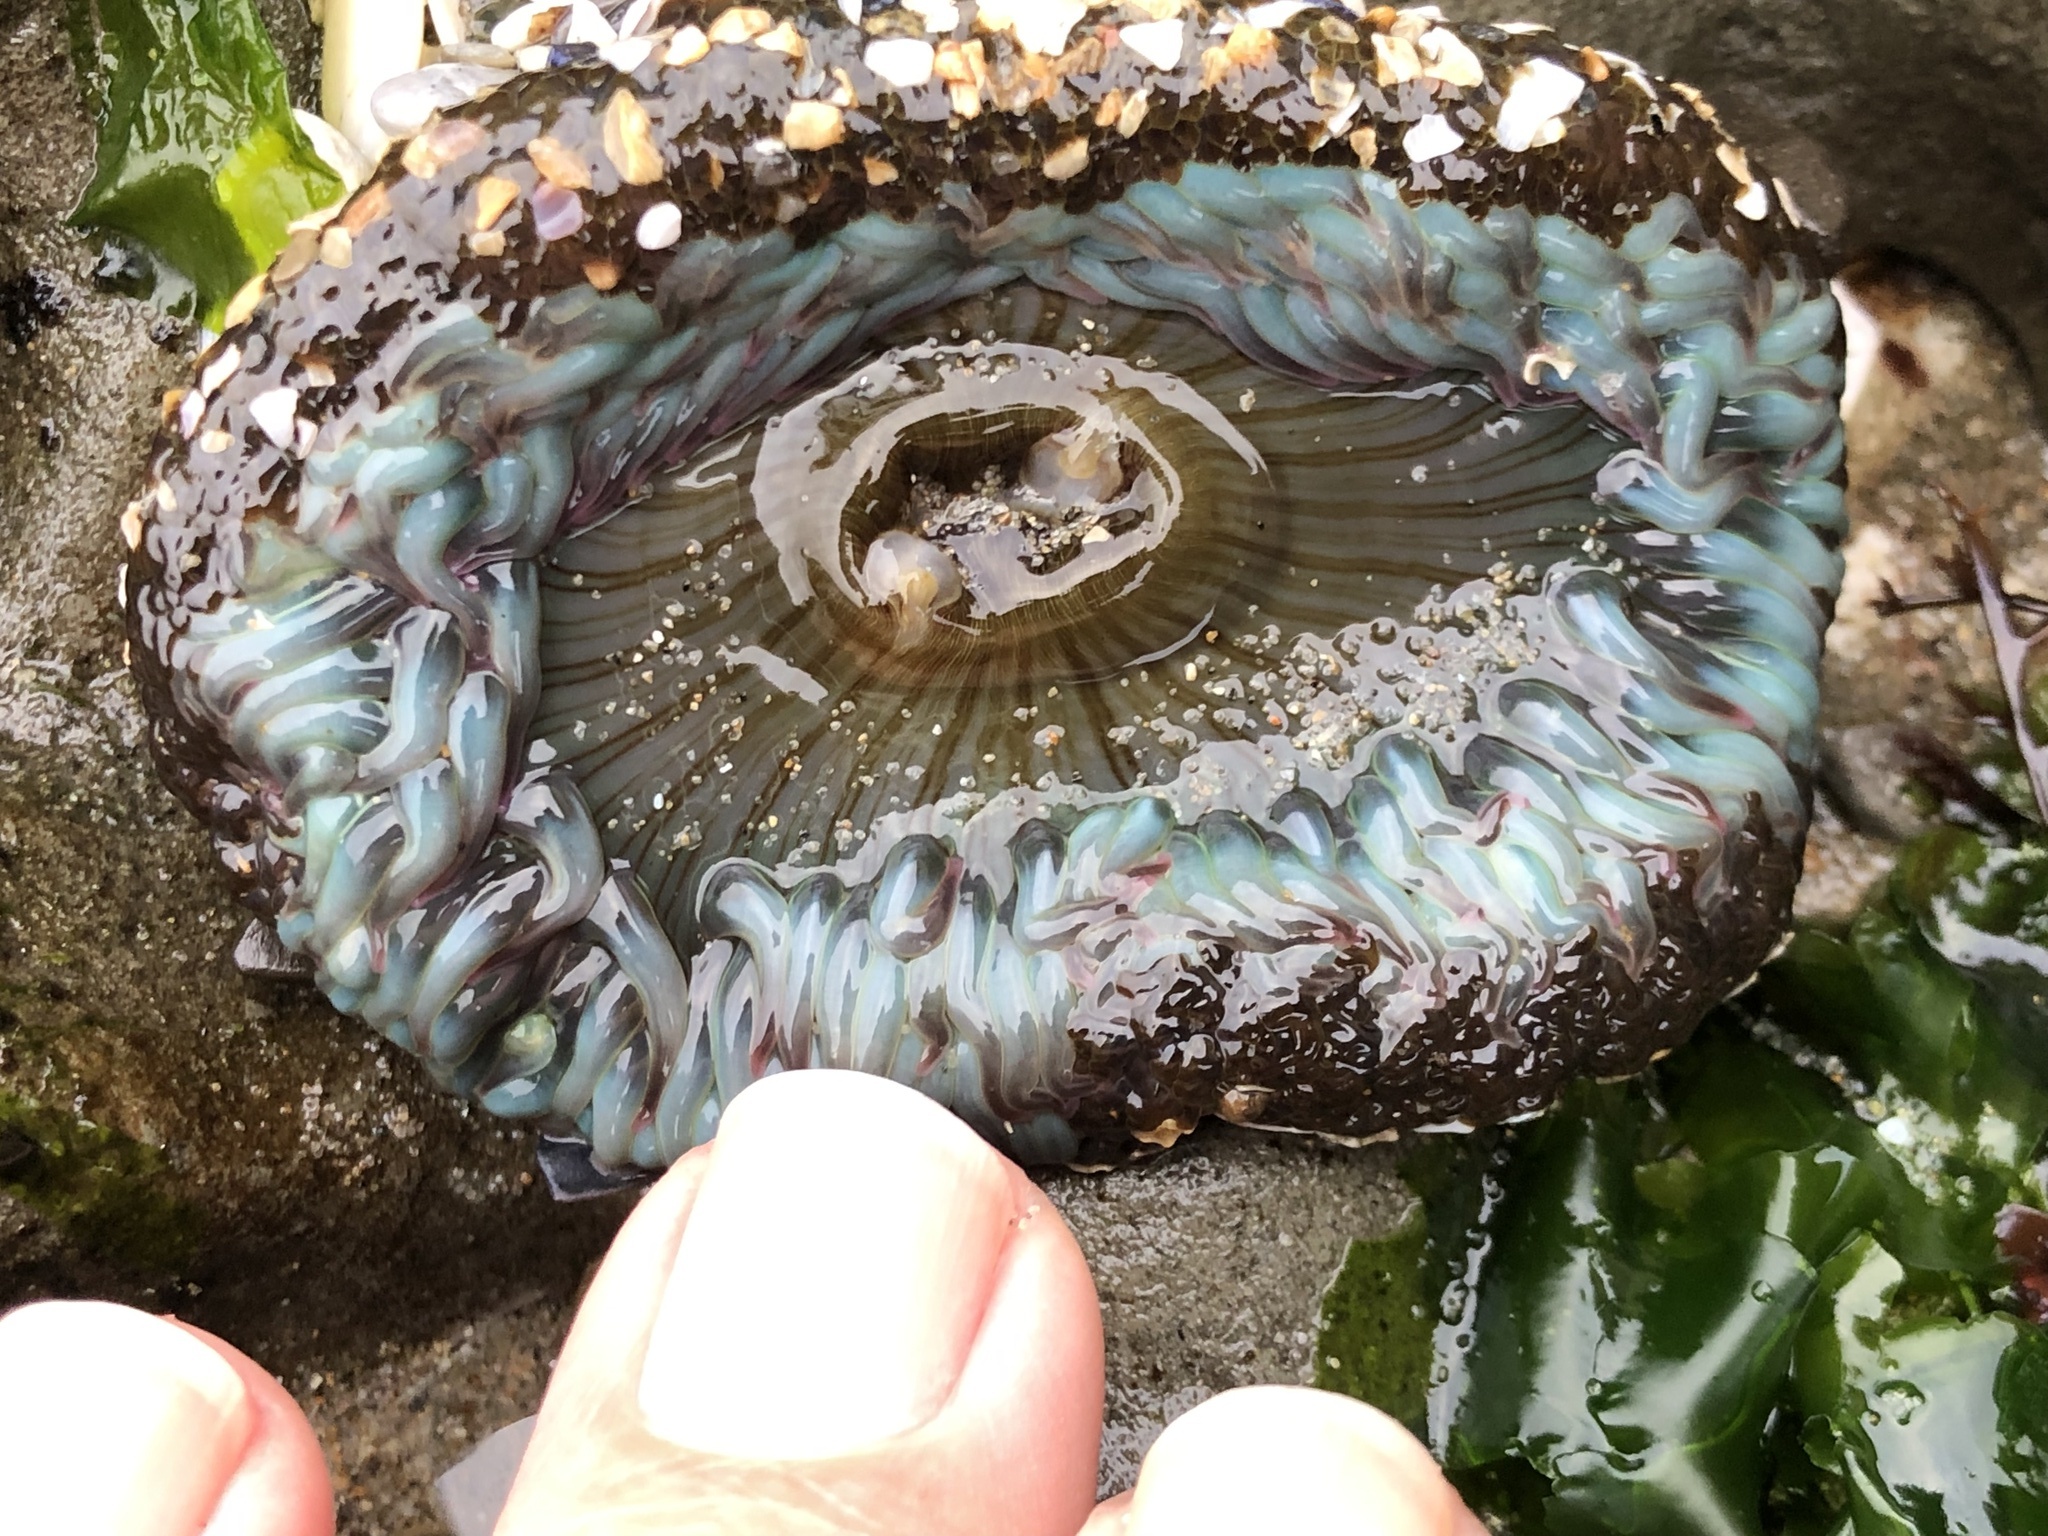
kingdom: Animalia
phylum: Cnidaria
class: Anthozoa
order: Actiniaria
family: Actiniidae
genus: Anthopleura
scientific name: Anthopleura sola
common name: Sun anemone
